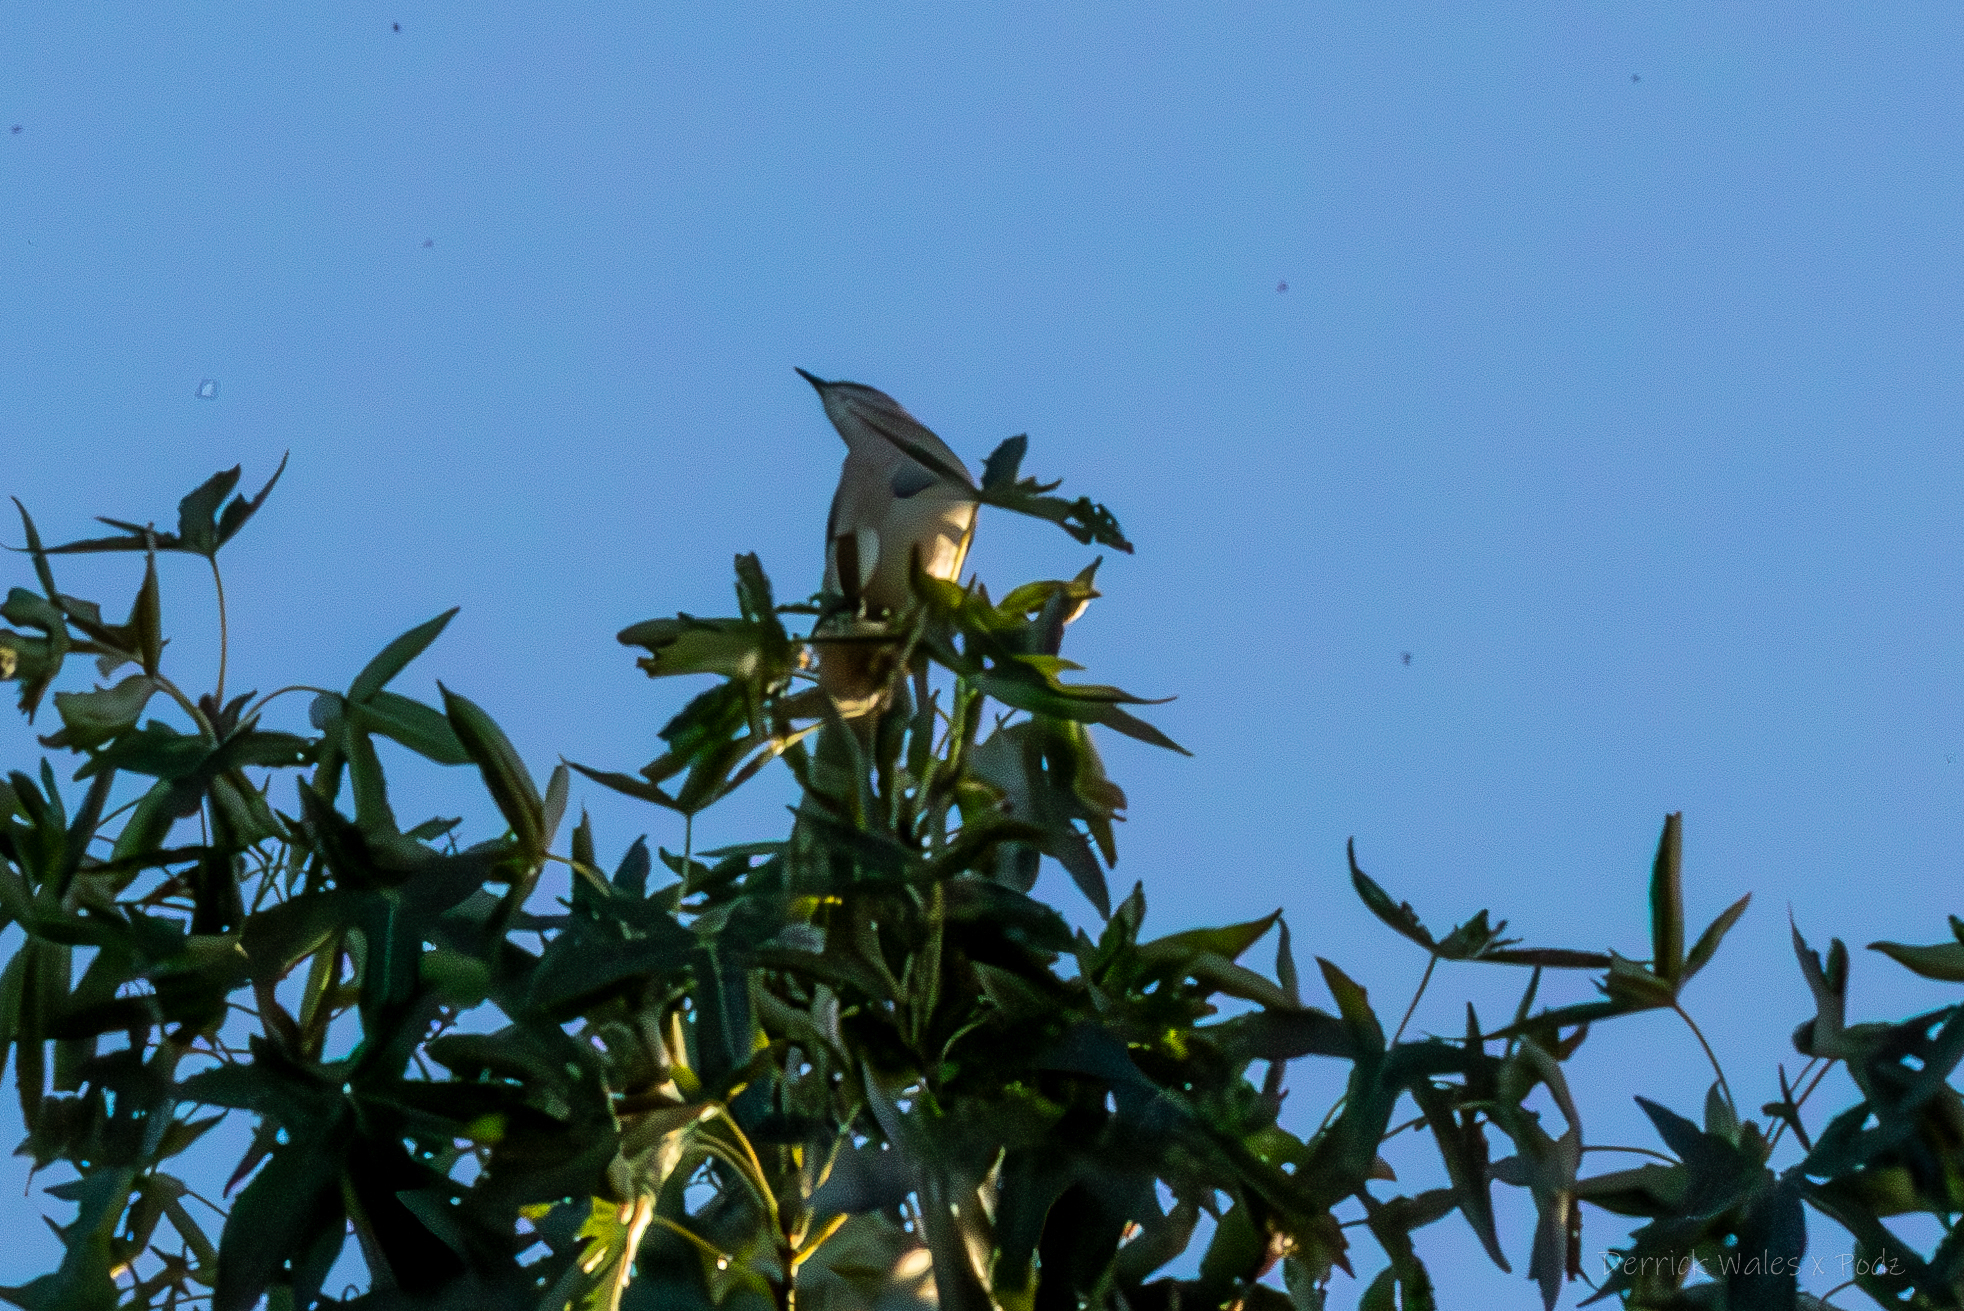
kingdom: Animalia
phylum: Chordata
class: Aves
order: Passeriformes
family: Mimidae
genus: Mimus
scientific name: Mimus polyglottos
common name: Northern mockingbird
